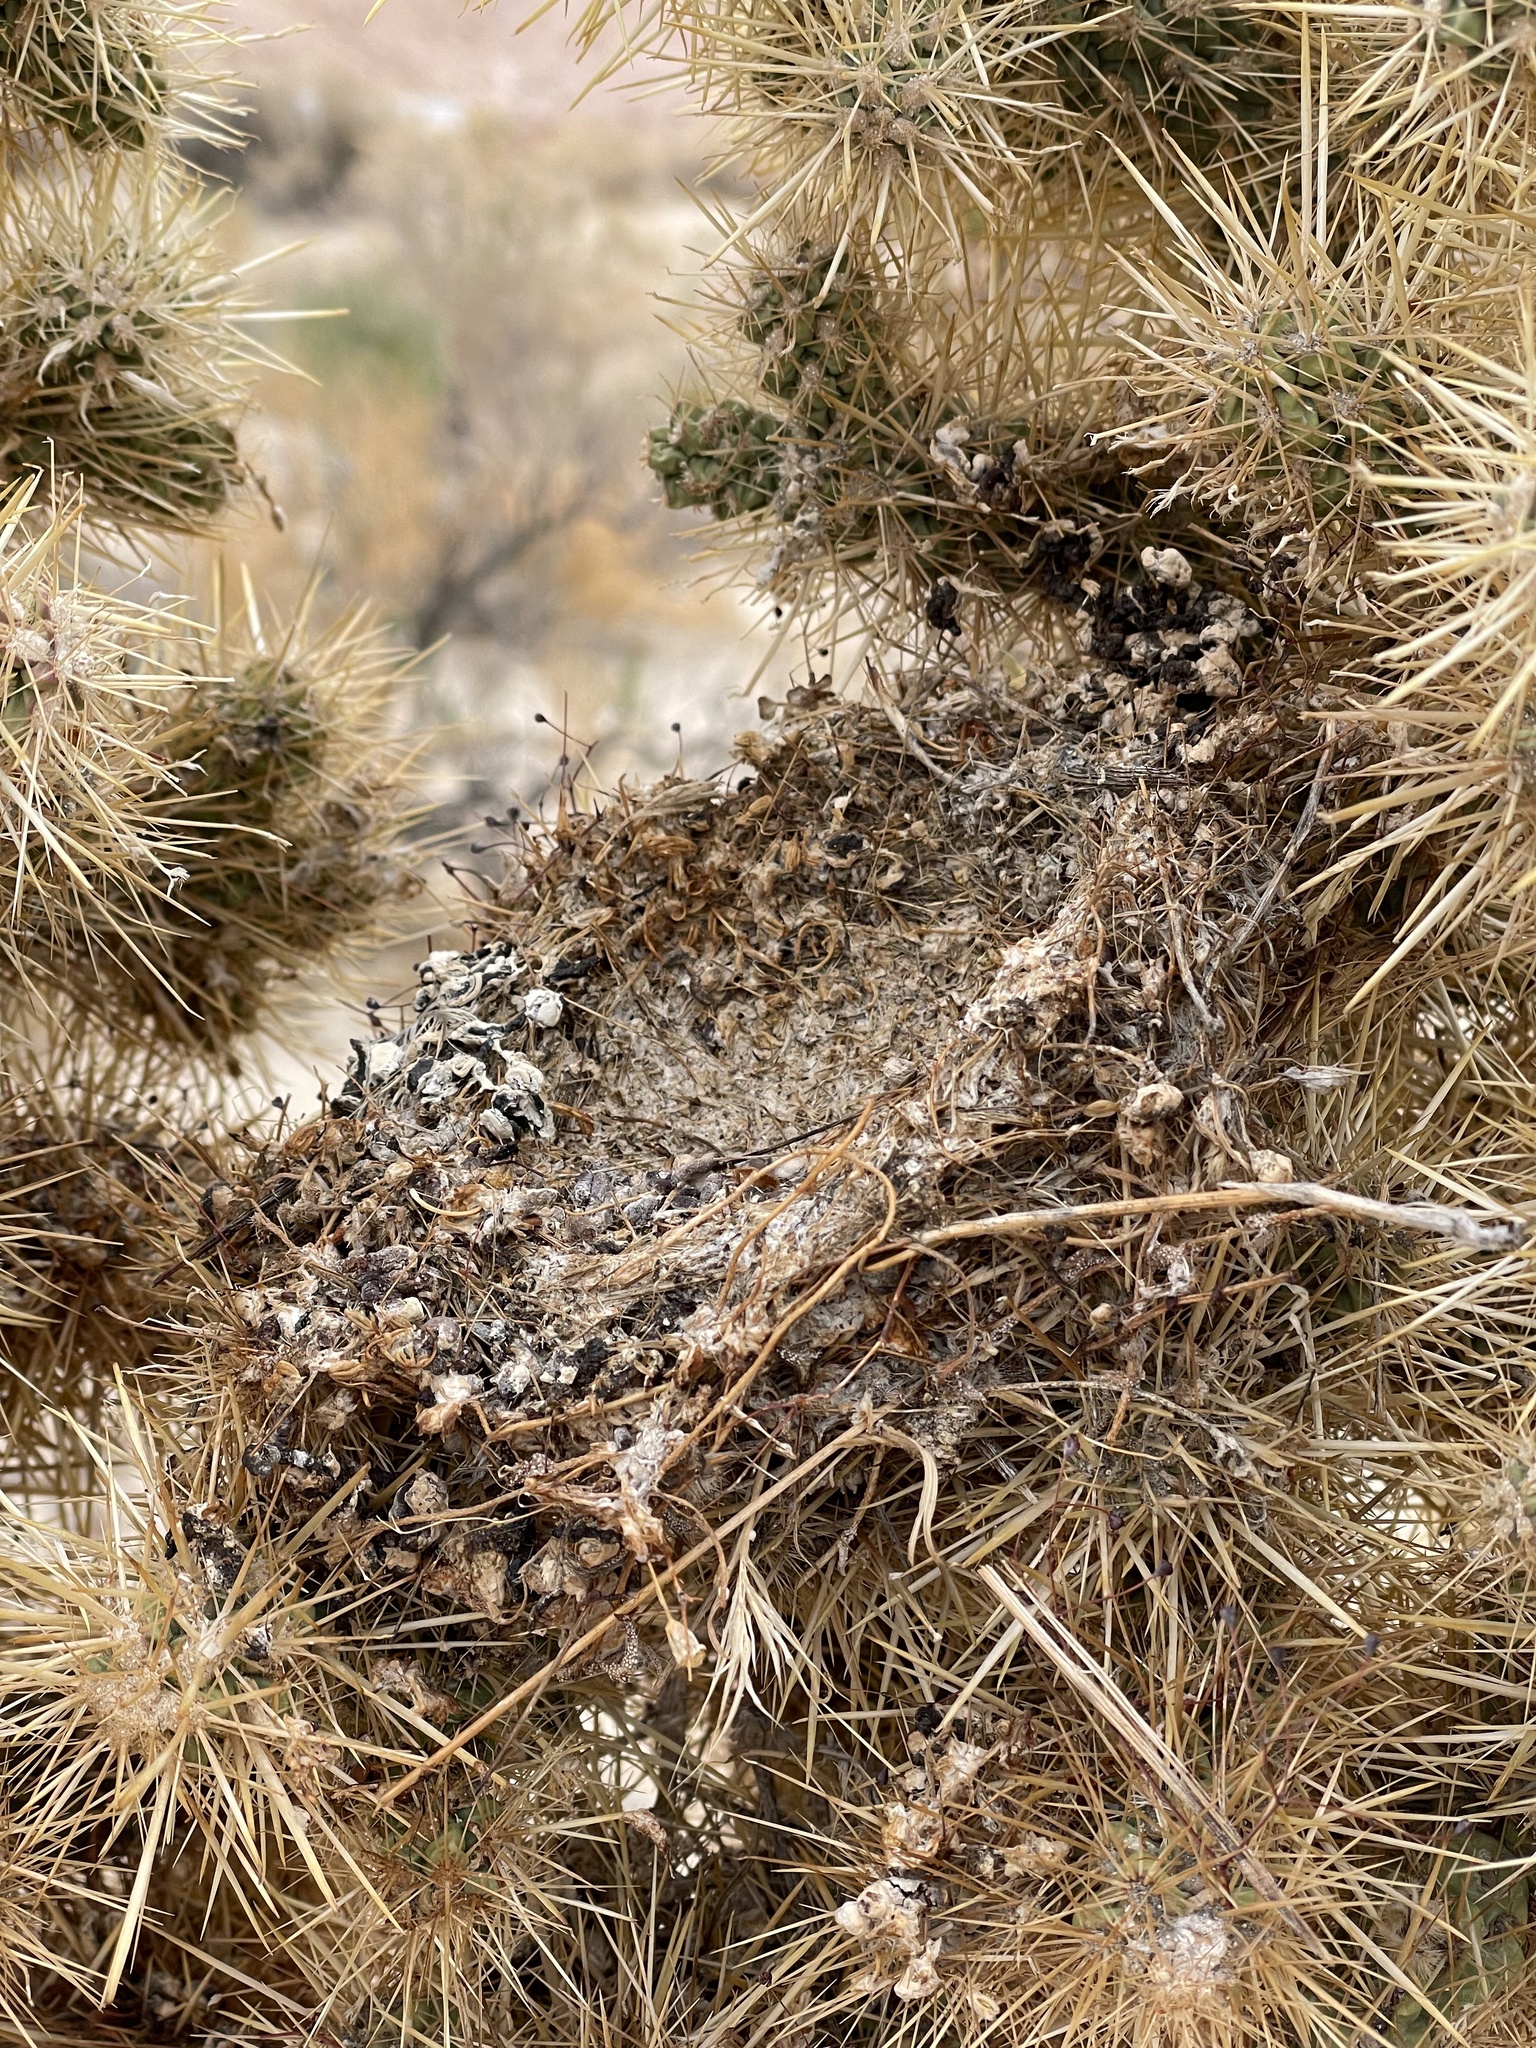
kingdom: Plantae
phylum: Tracheophyta
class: Magnoliopsida
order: Caryophyllales
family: Cactaceae
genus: Cylindropuntia
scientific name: Cylindropuntia echinocarpa
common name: Ground cholla
